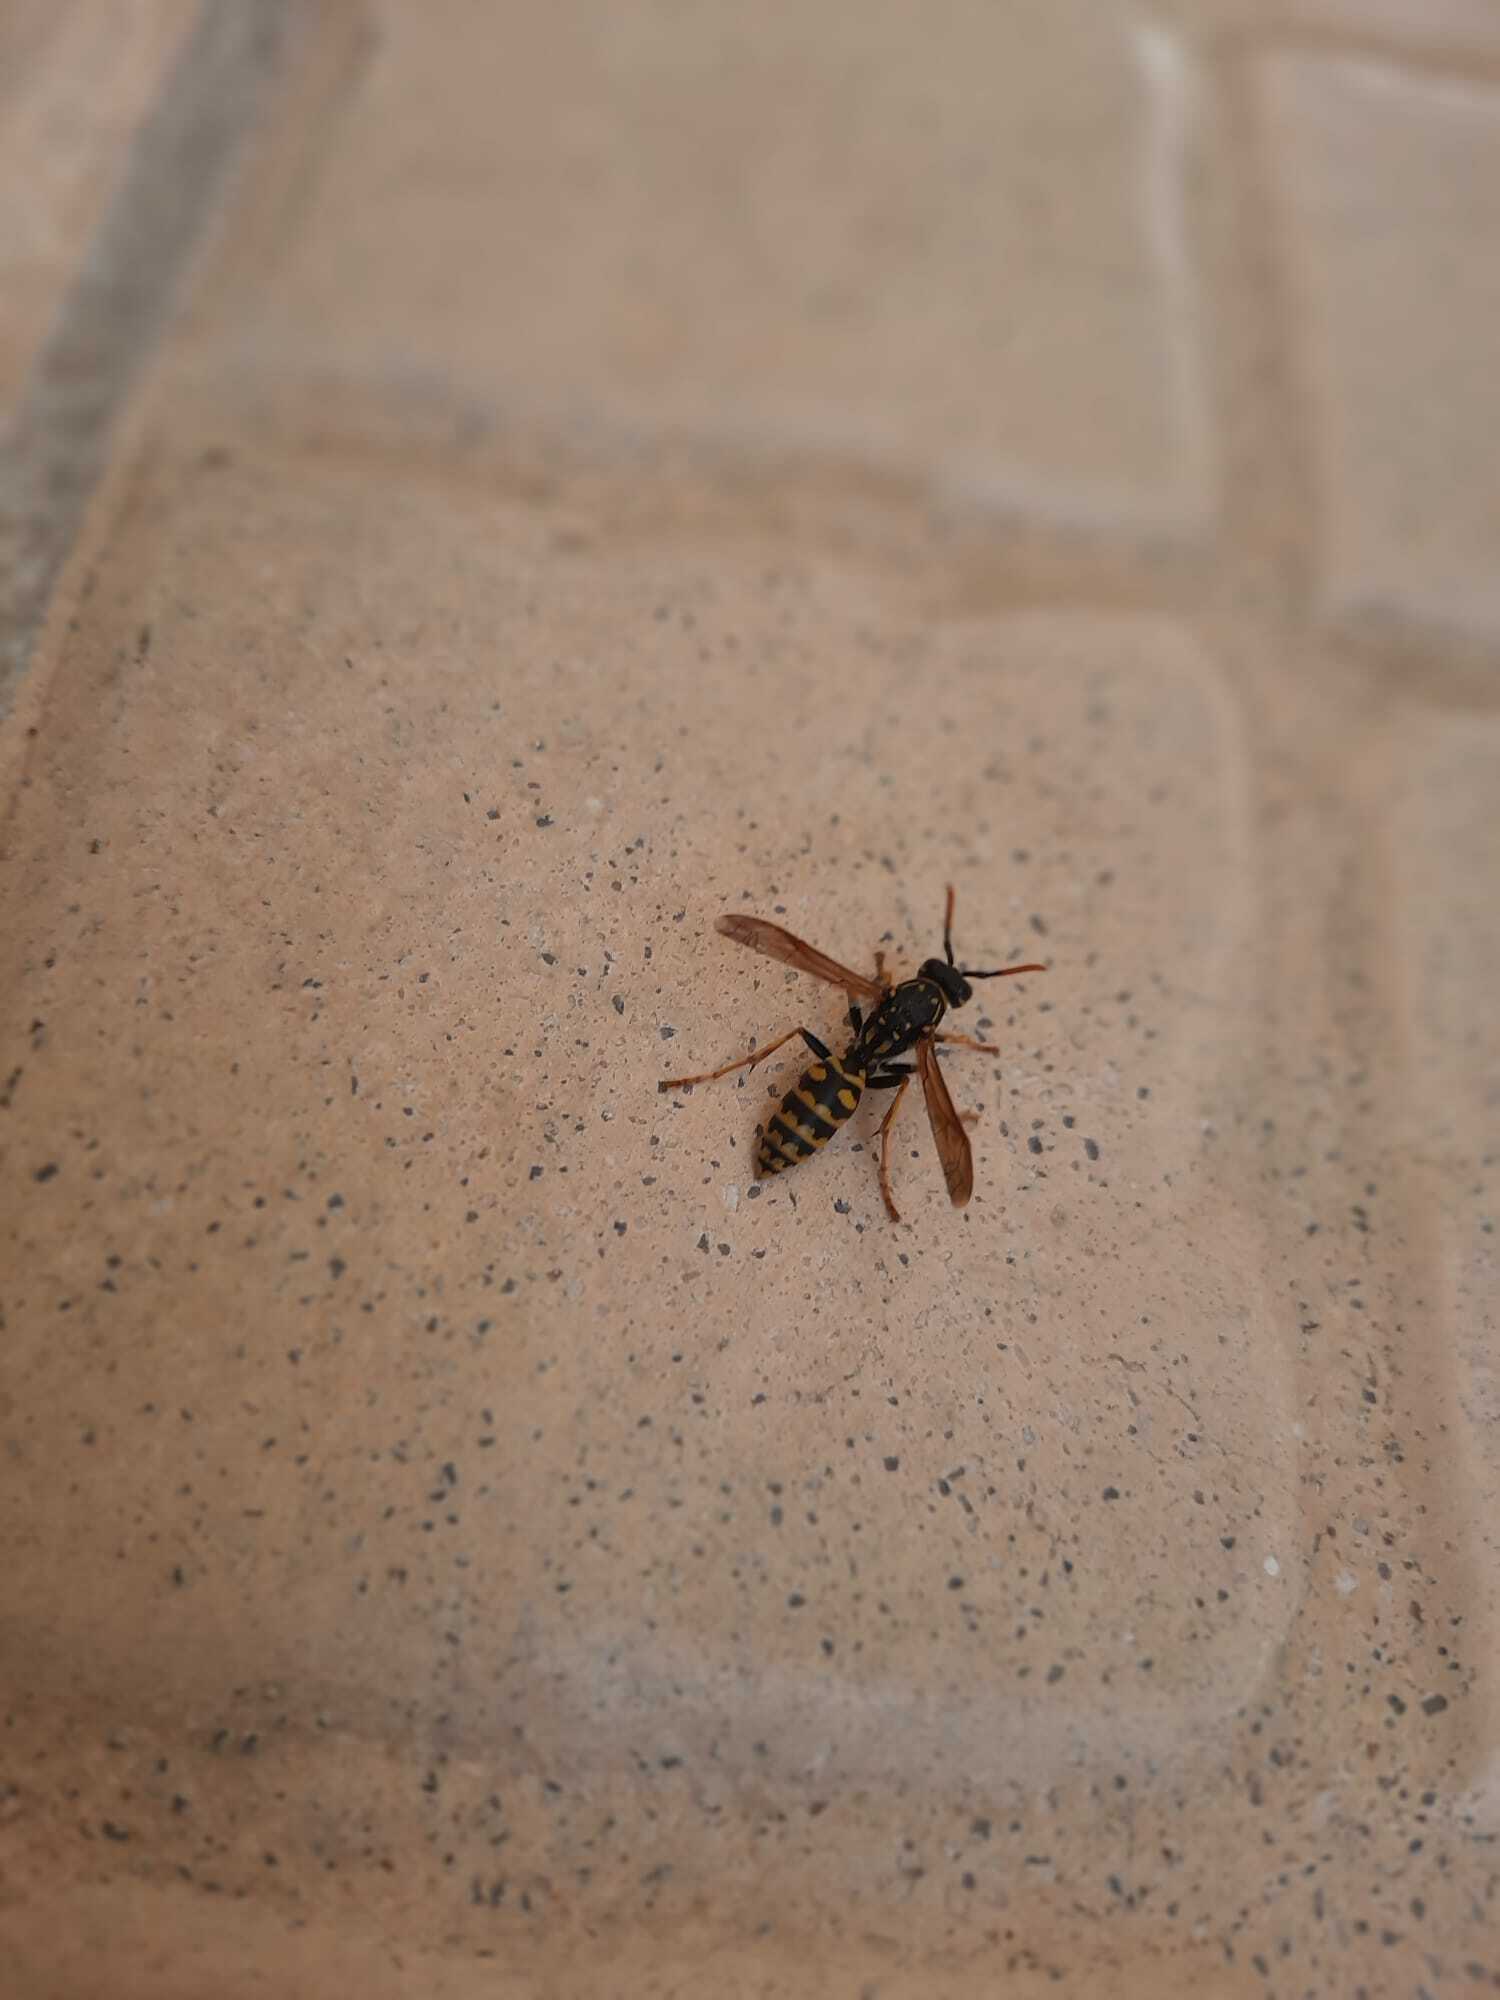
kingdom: Animalia
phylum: Arthropoda
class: Insecta
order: Hymenoptera
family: Eumenidae
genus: Polistes
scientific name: Polistes dominula
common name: Paper wasp
